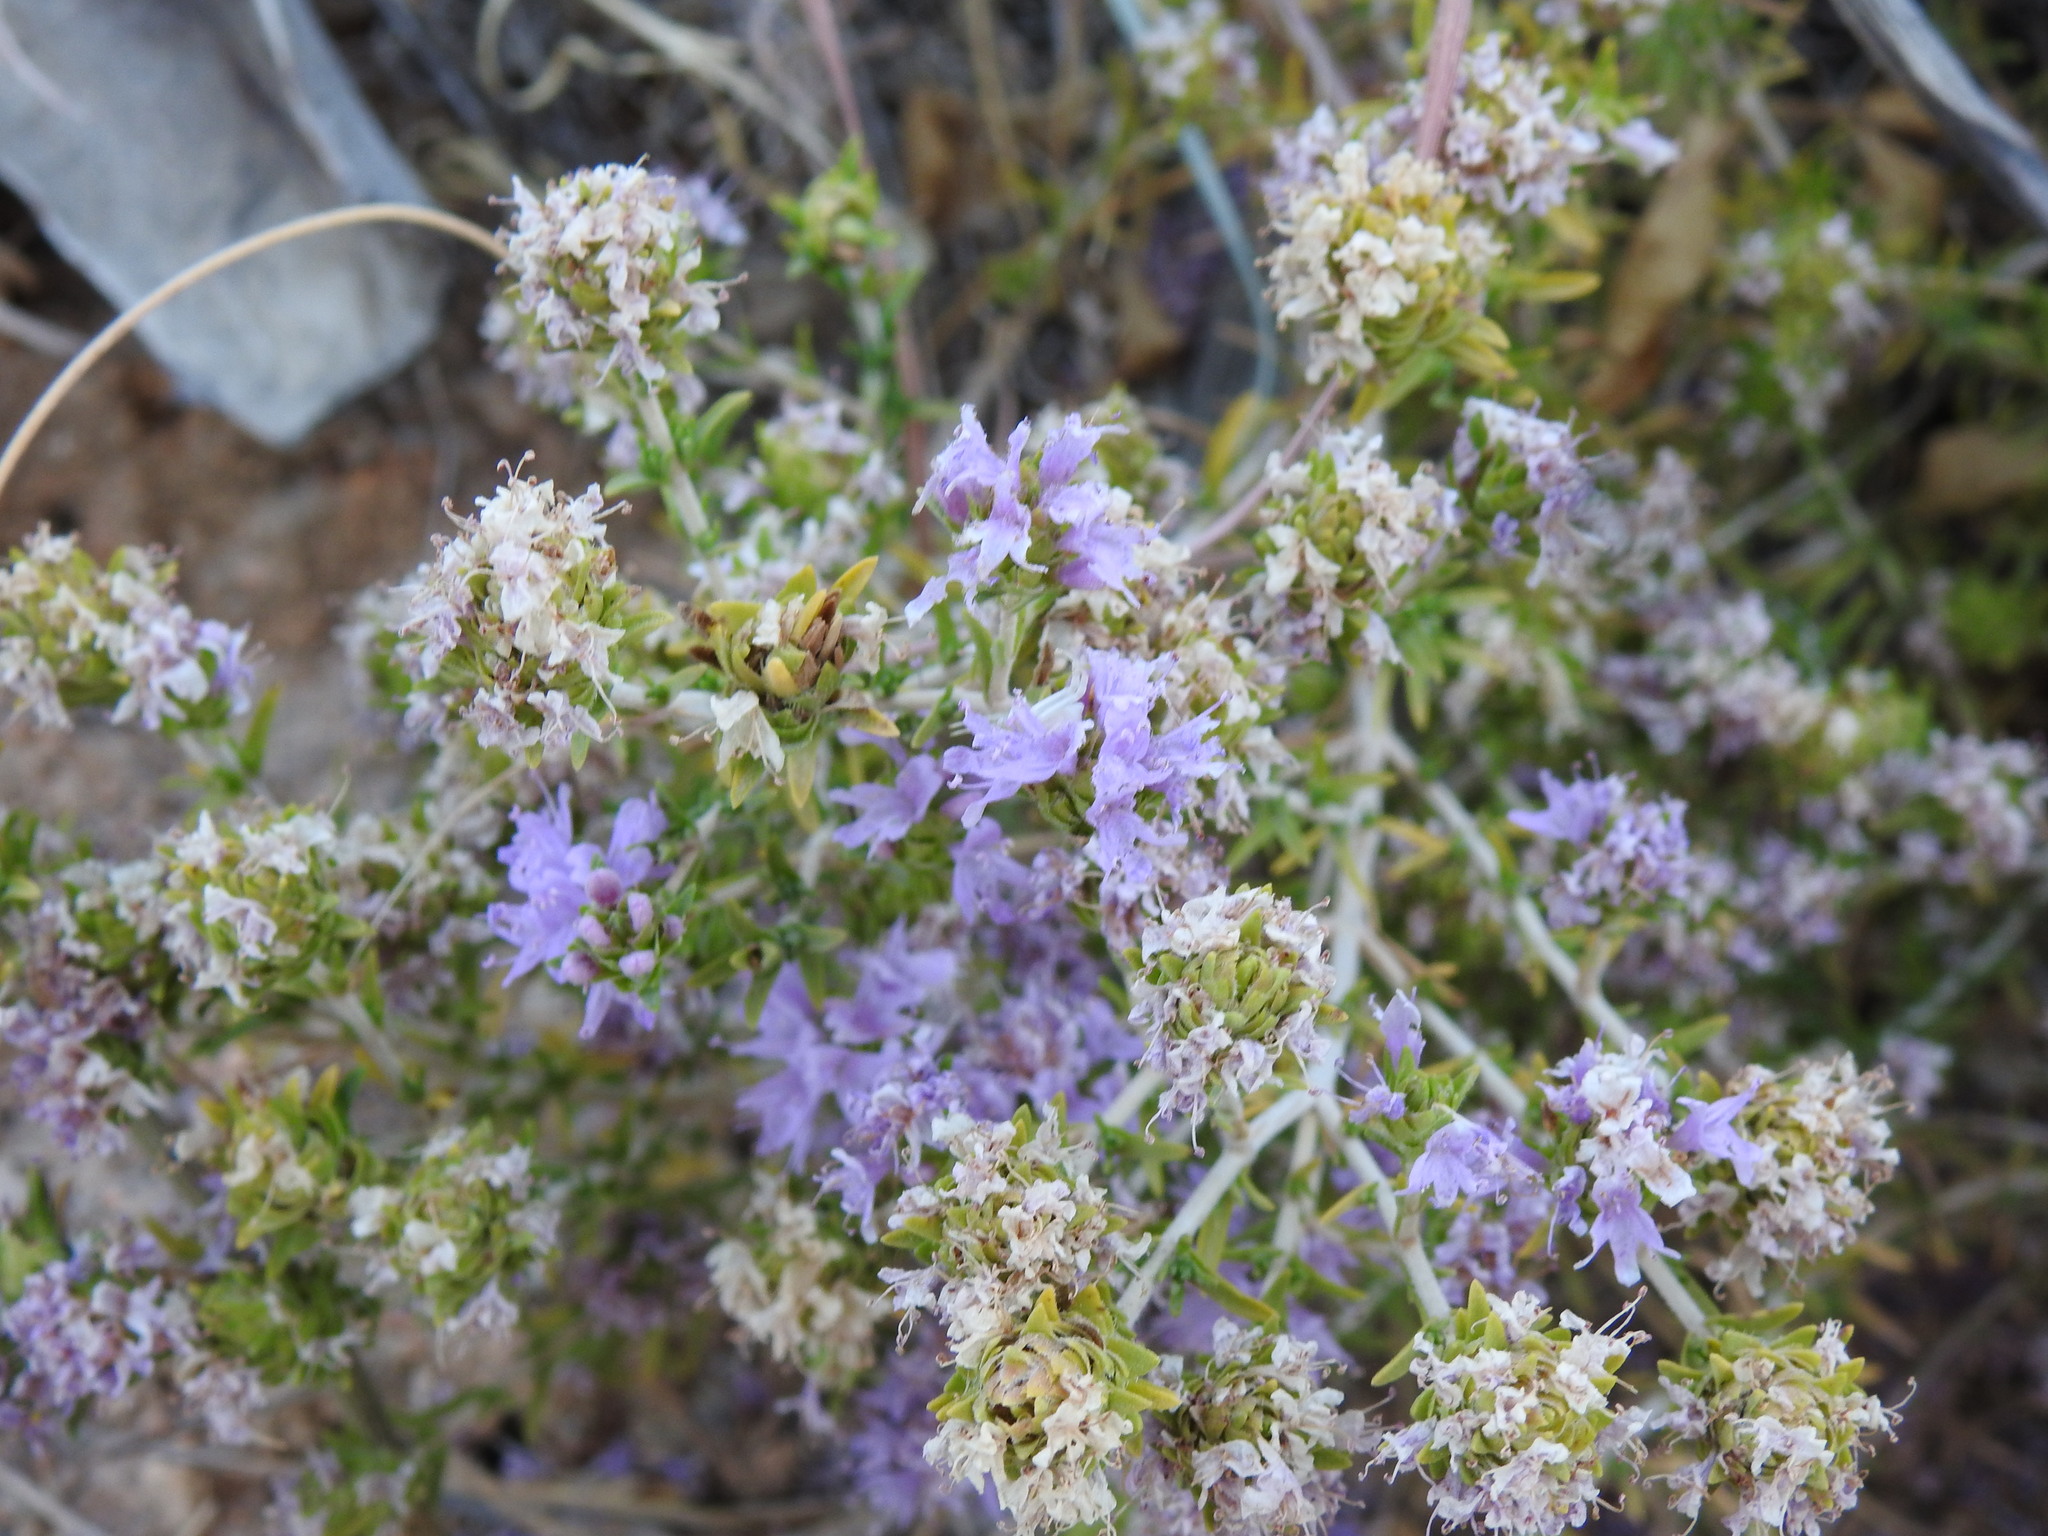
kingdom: Plantae
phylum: Tracheophyta
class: Magnoliopsida
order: Lamiales
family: Lamiaceae
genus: Thymbra
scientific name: Thymbra capitata
